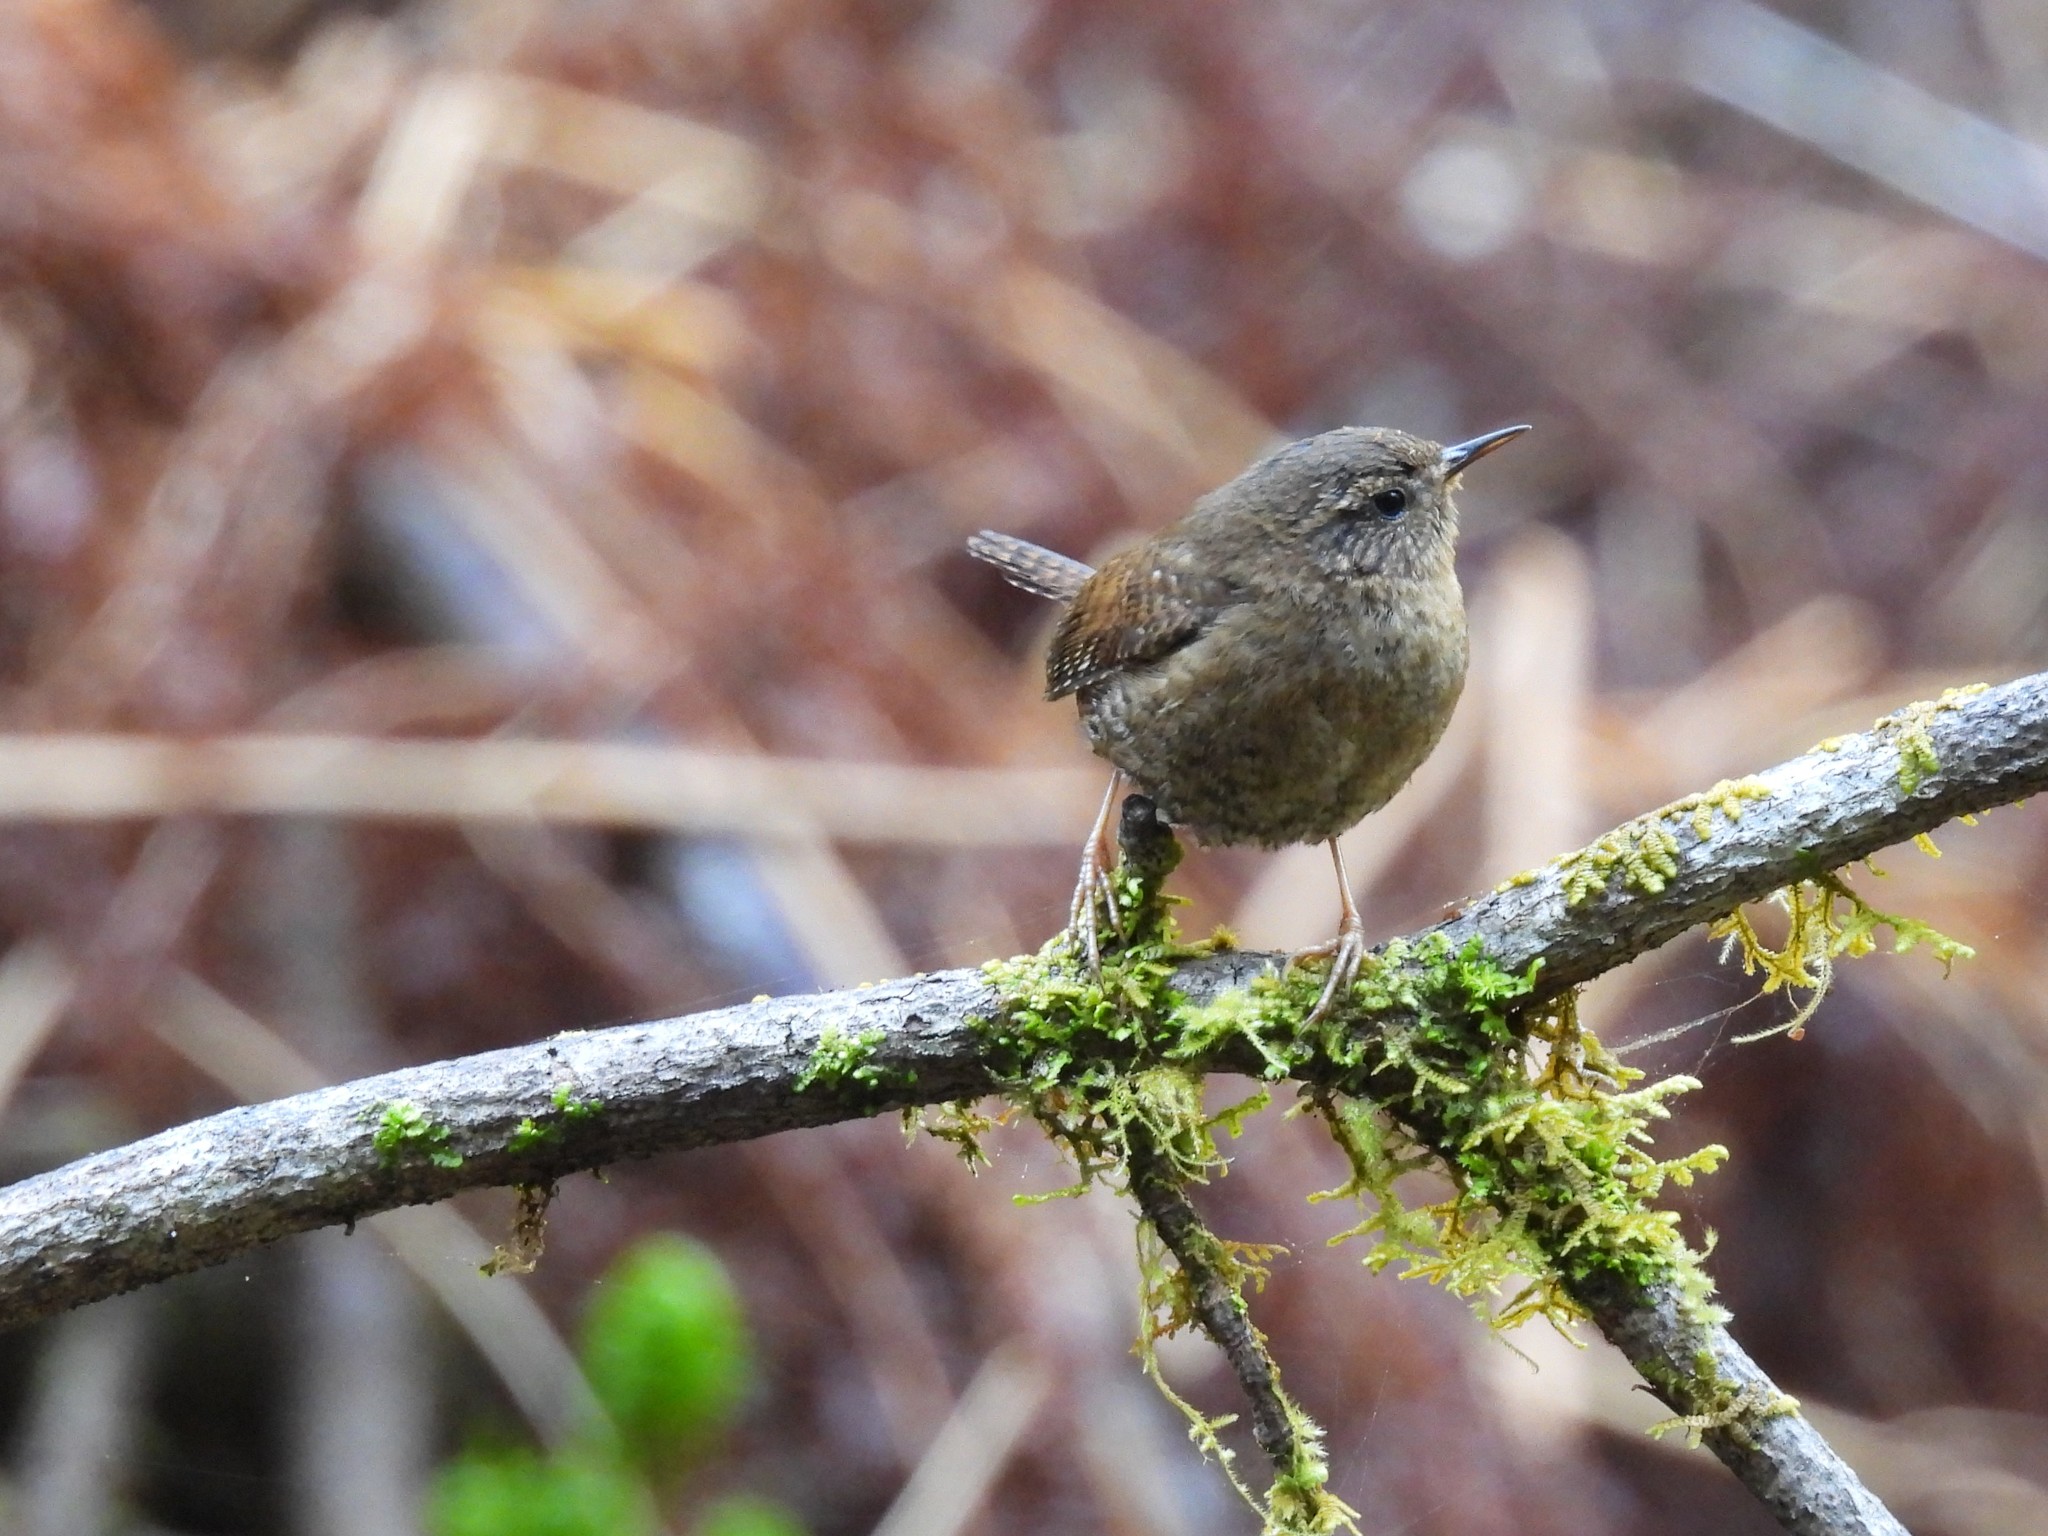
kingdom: Animalia
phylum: Chordata
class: Aves
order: Passeriformes
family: Troglodytidae
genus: Troglodytes
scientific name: Troglodytes pacificus
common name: Pacific wren
